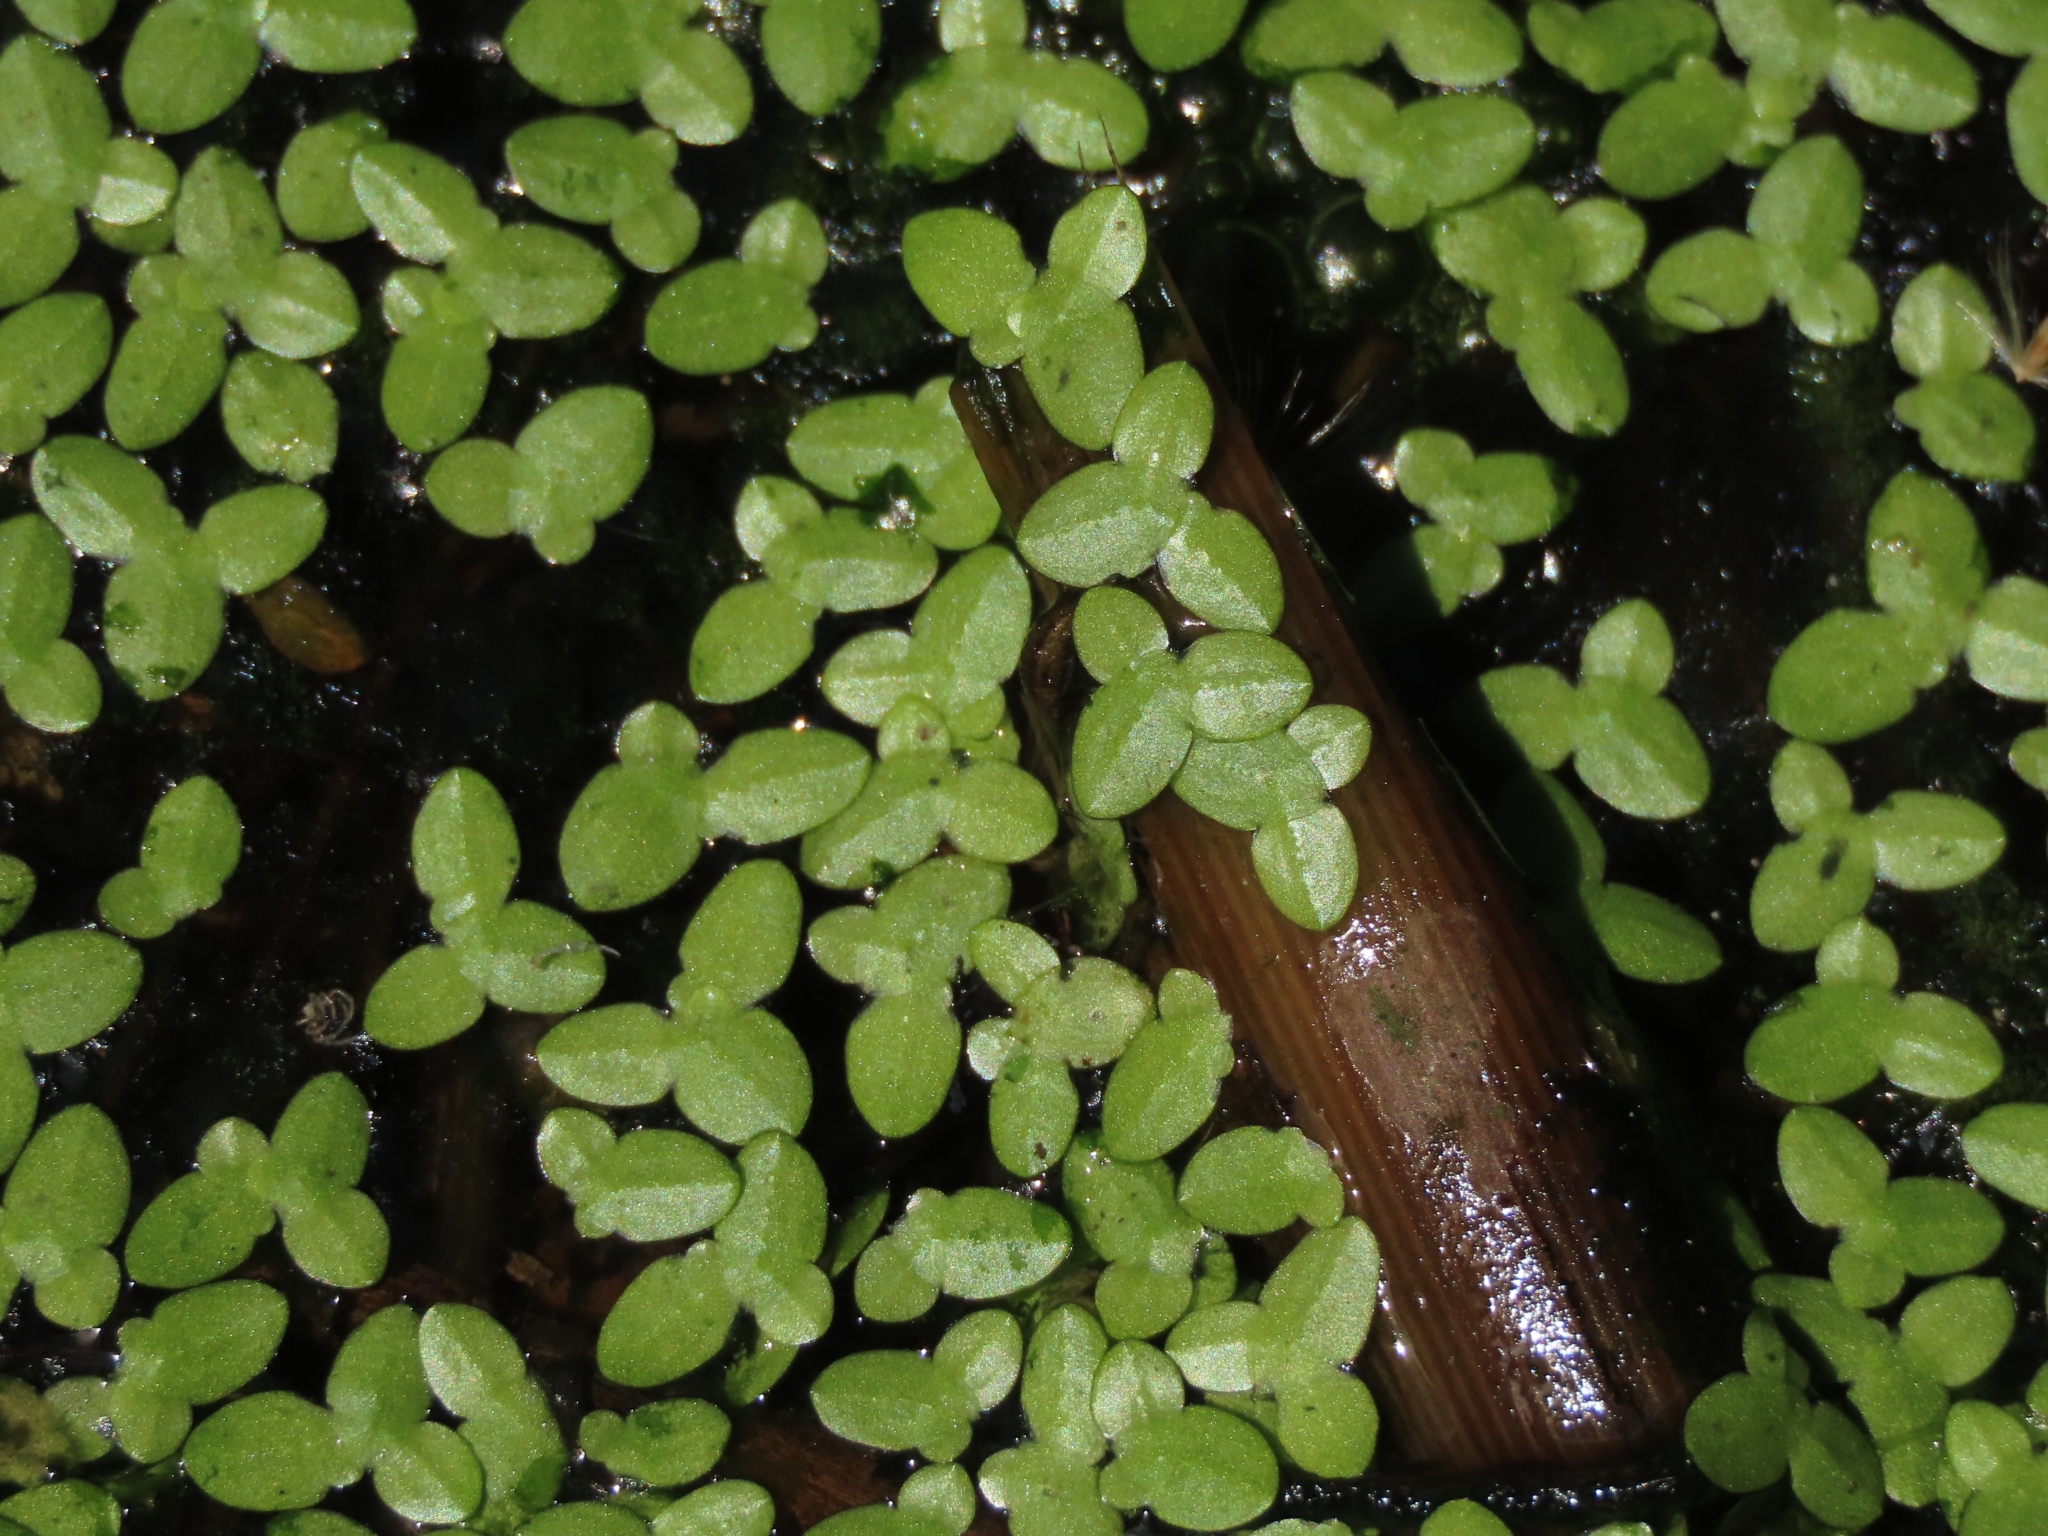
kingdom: Plantae
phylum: Tracheophyta
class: Liliopsida
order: Alismatales
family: Araceae
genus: Lemna
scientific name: Lemna aequinoctialis
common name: Duckweed
